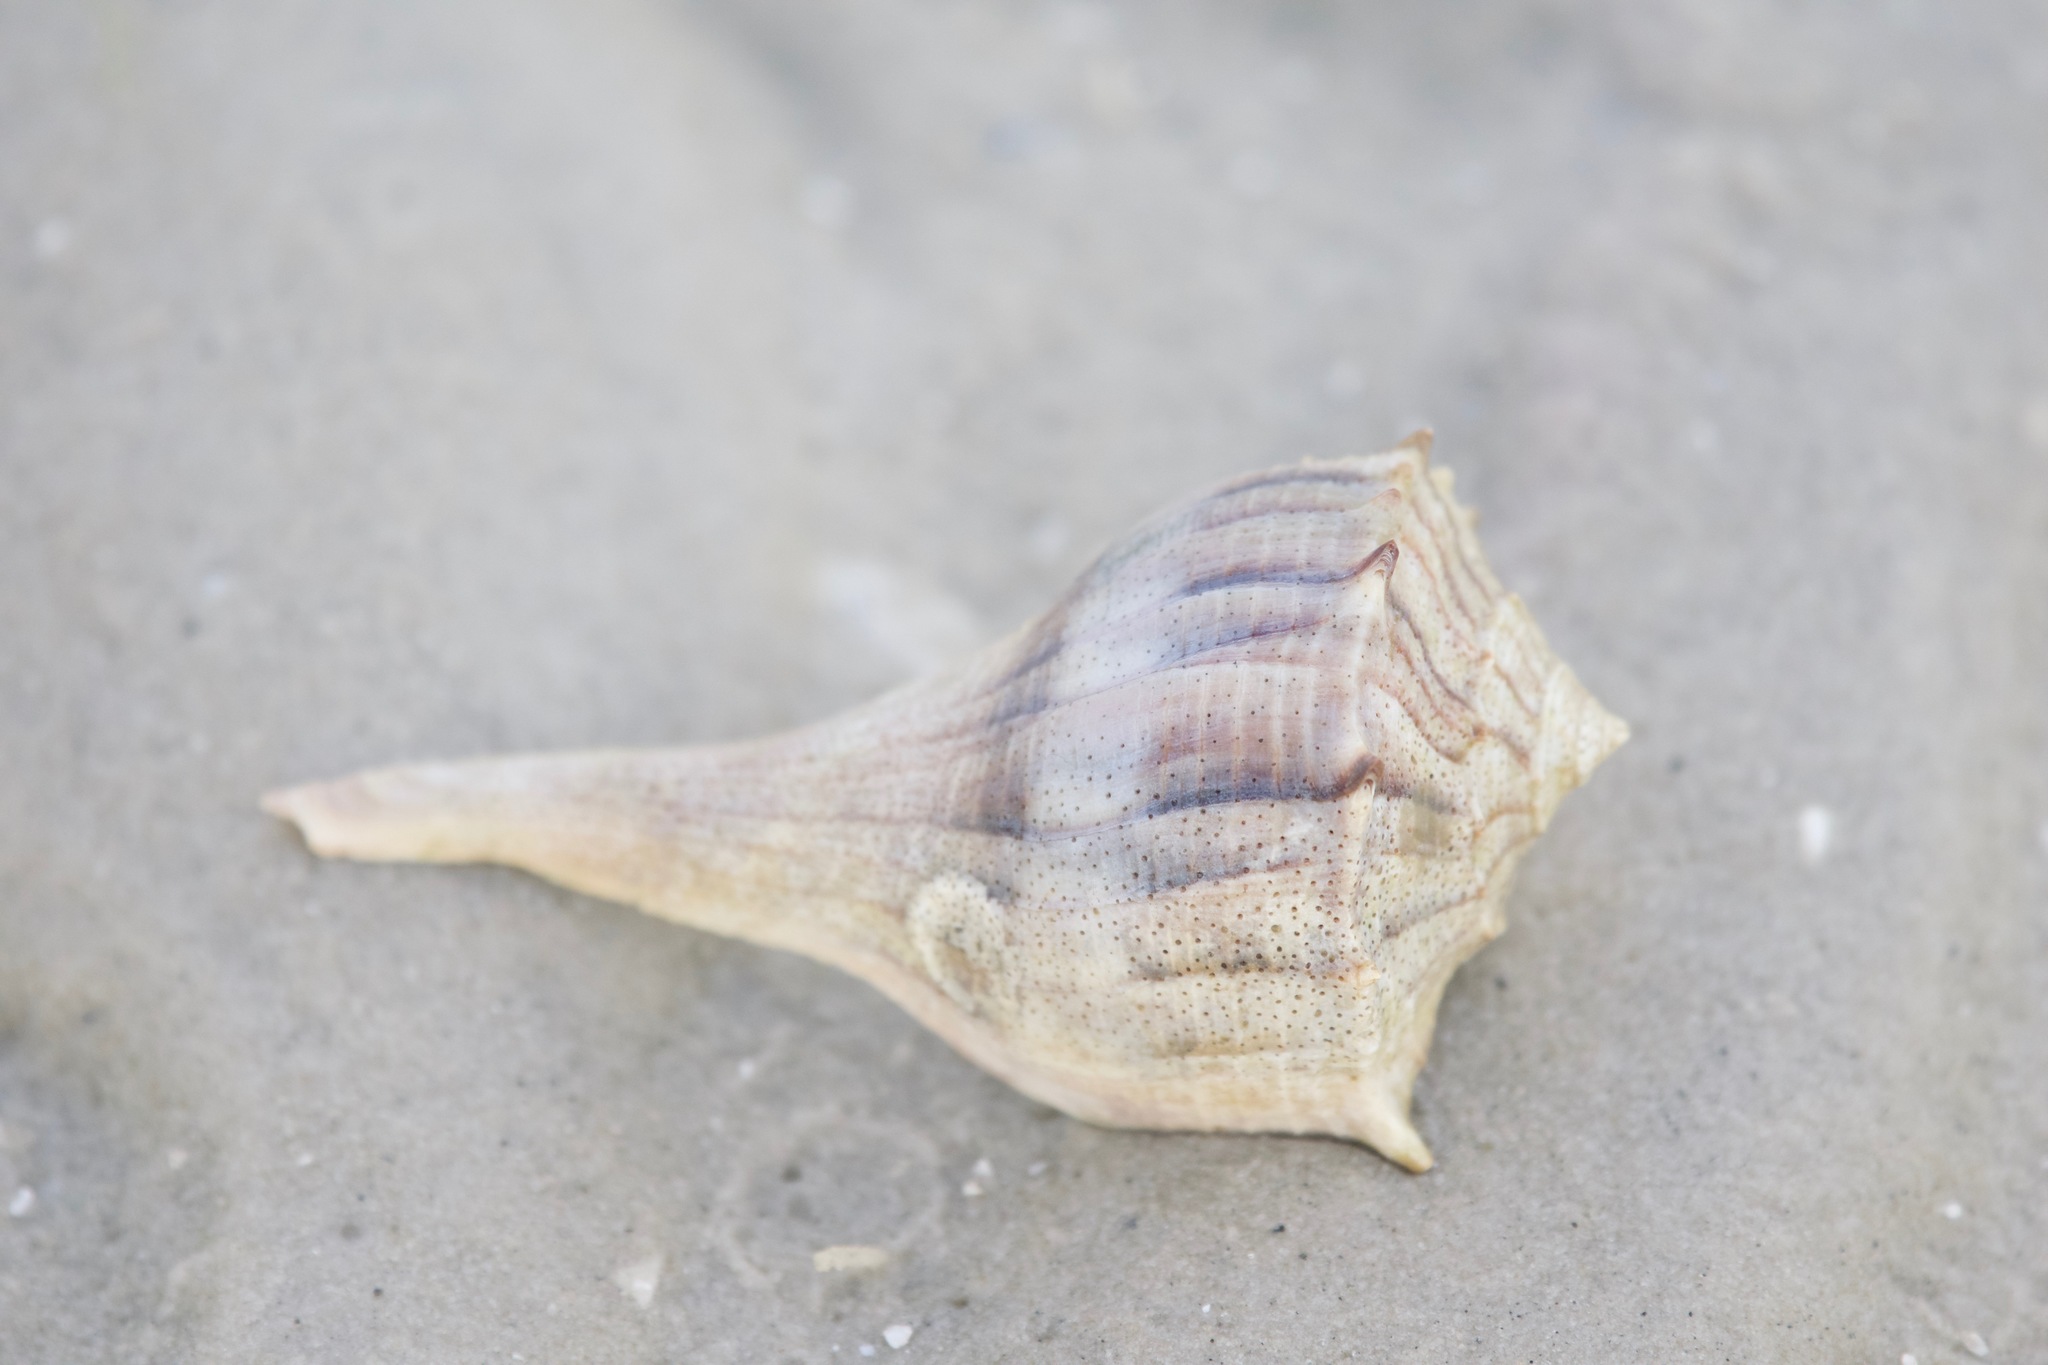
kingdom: Animalia
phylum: Mollusca
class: Gastropoda
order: Neogastropoda
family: Busyconidae
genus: Sinistrofulgur
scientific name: Sinistrofulgur sinistrum
